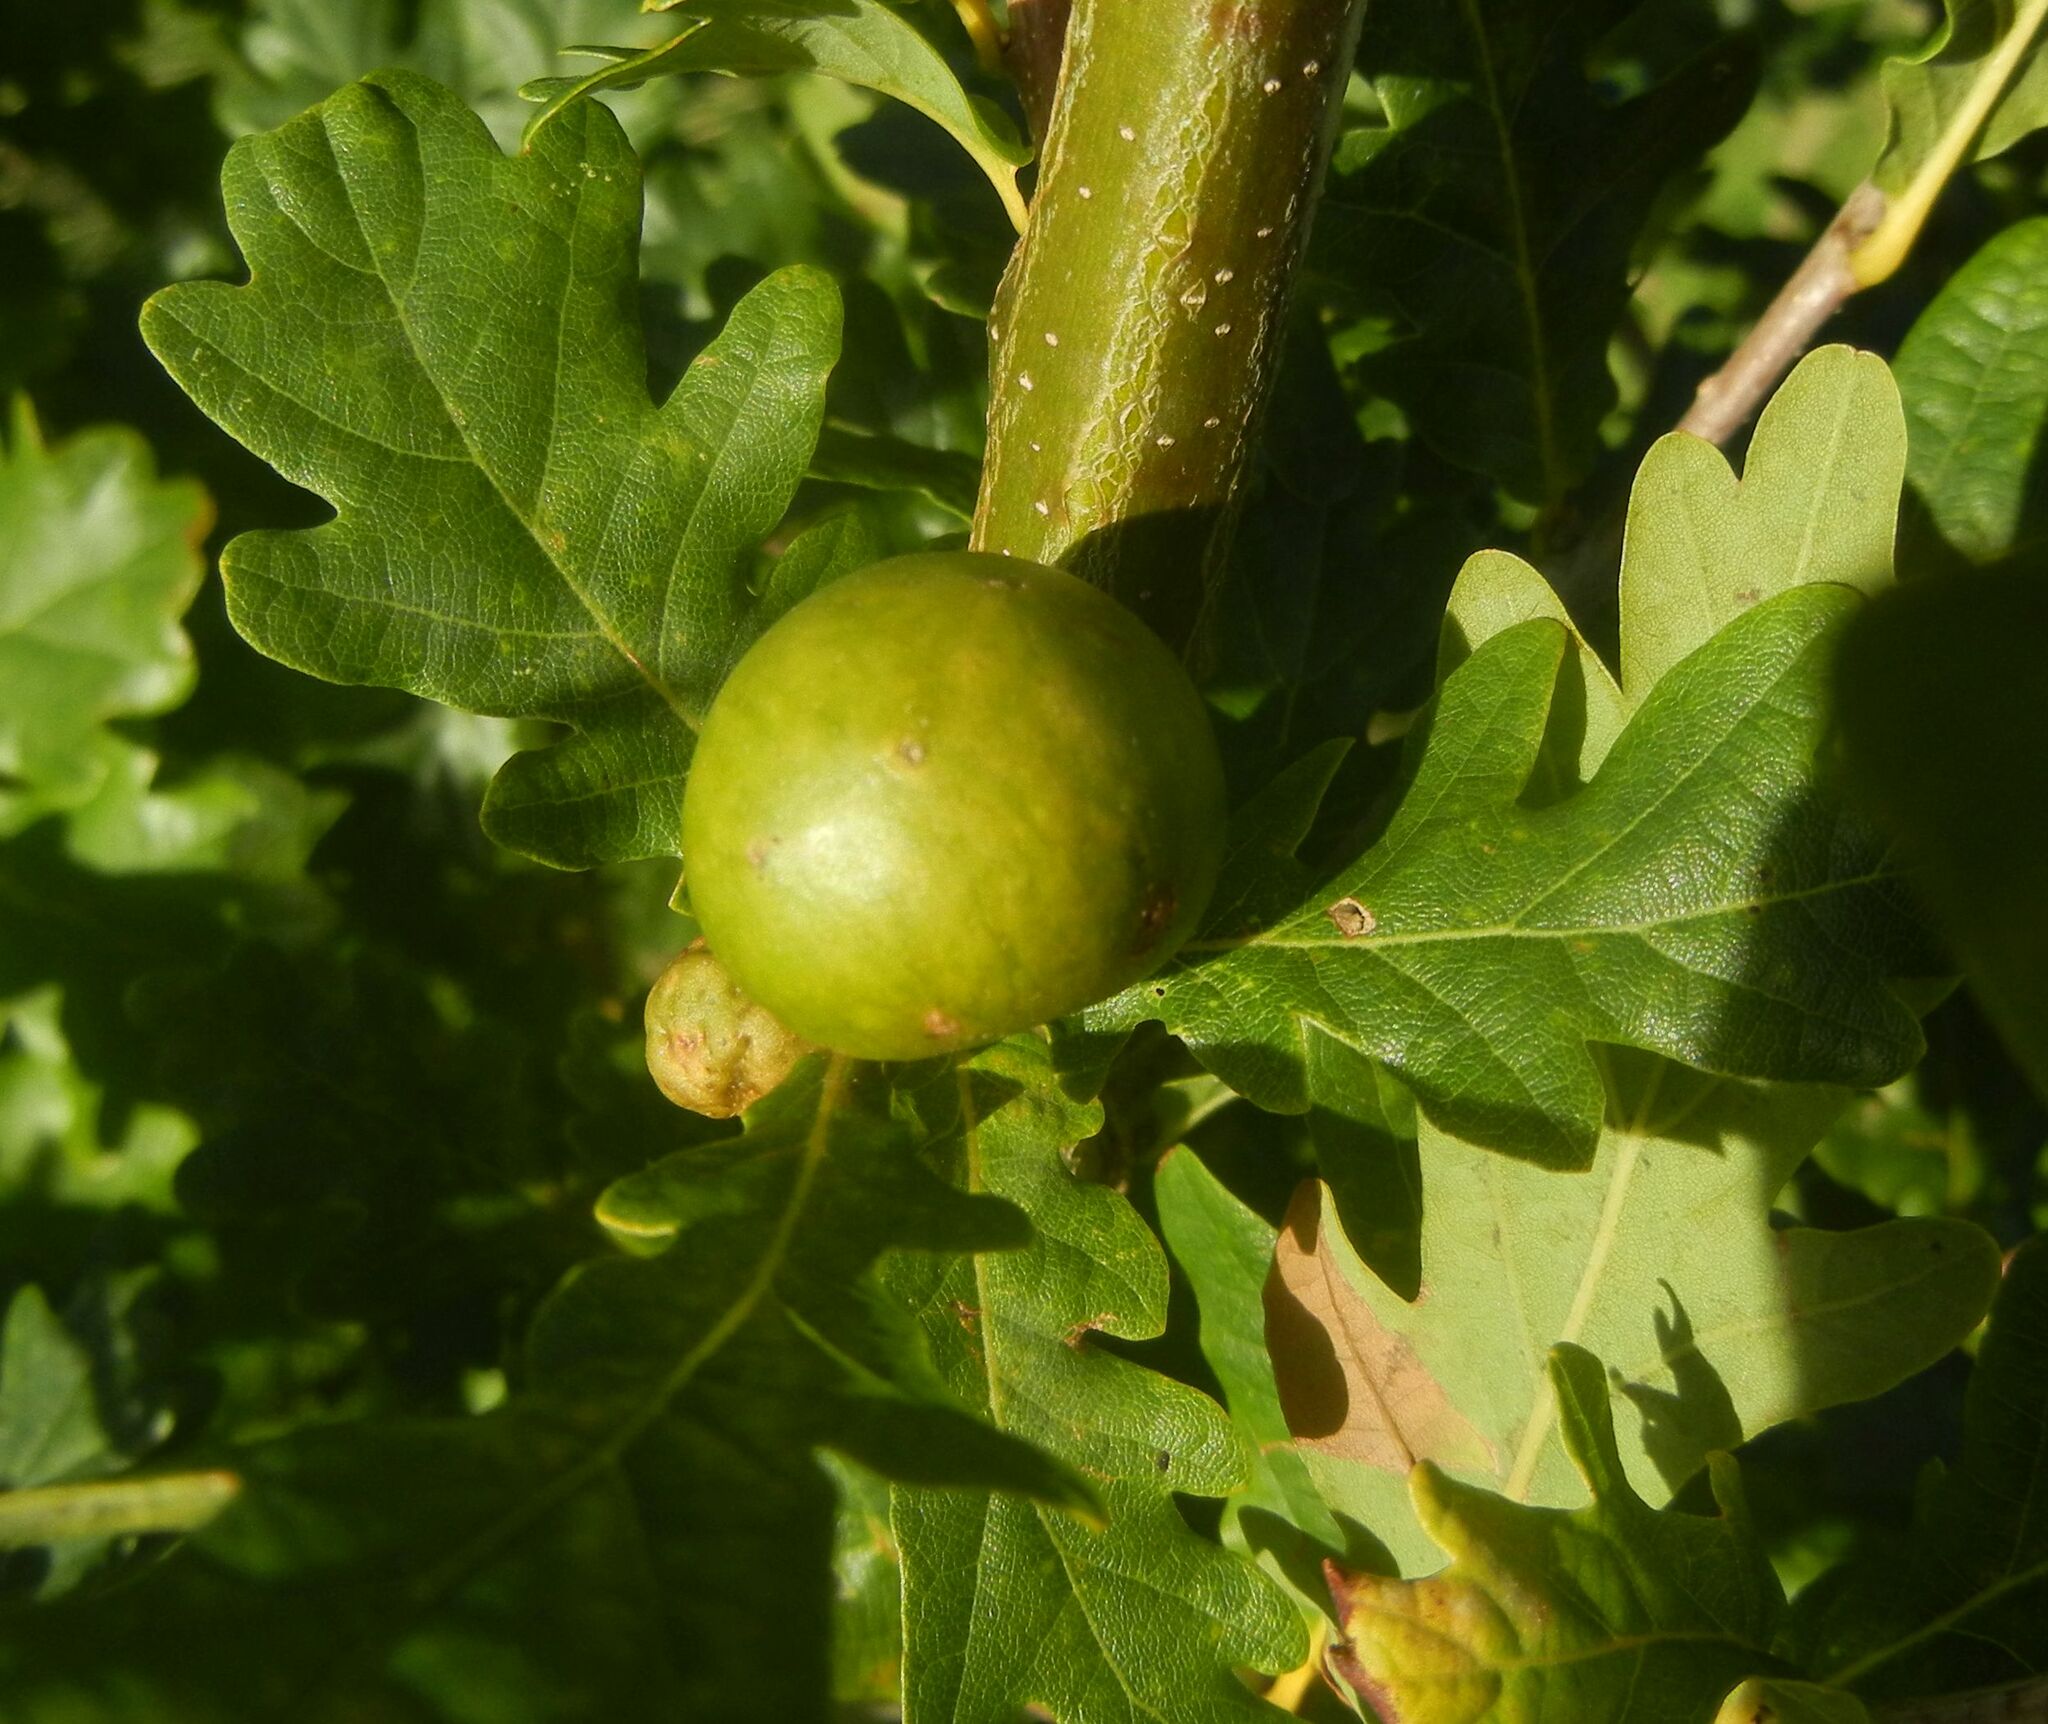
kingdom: Animalia
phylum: Arthropoda
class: Insecta
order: Hymenoptera
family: Cynipidae
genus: Andricus
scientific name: Andricus kollari
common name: Marble gall
